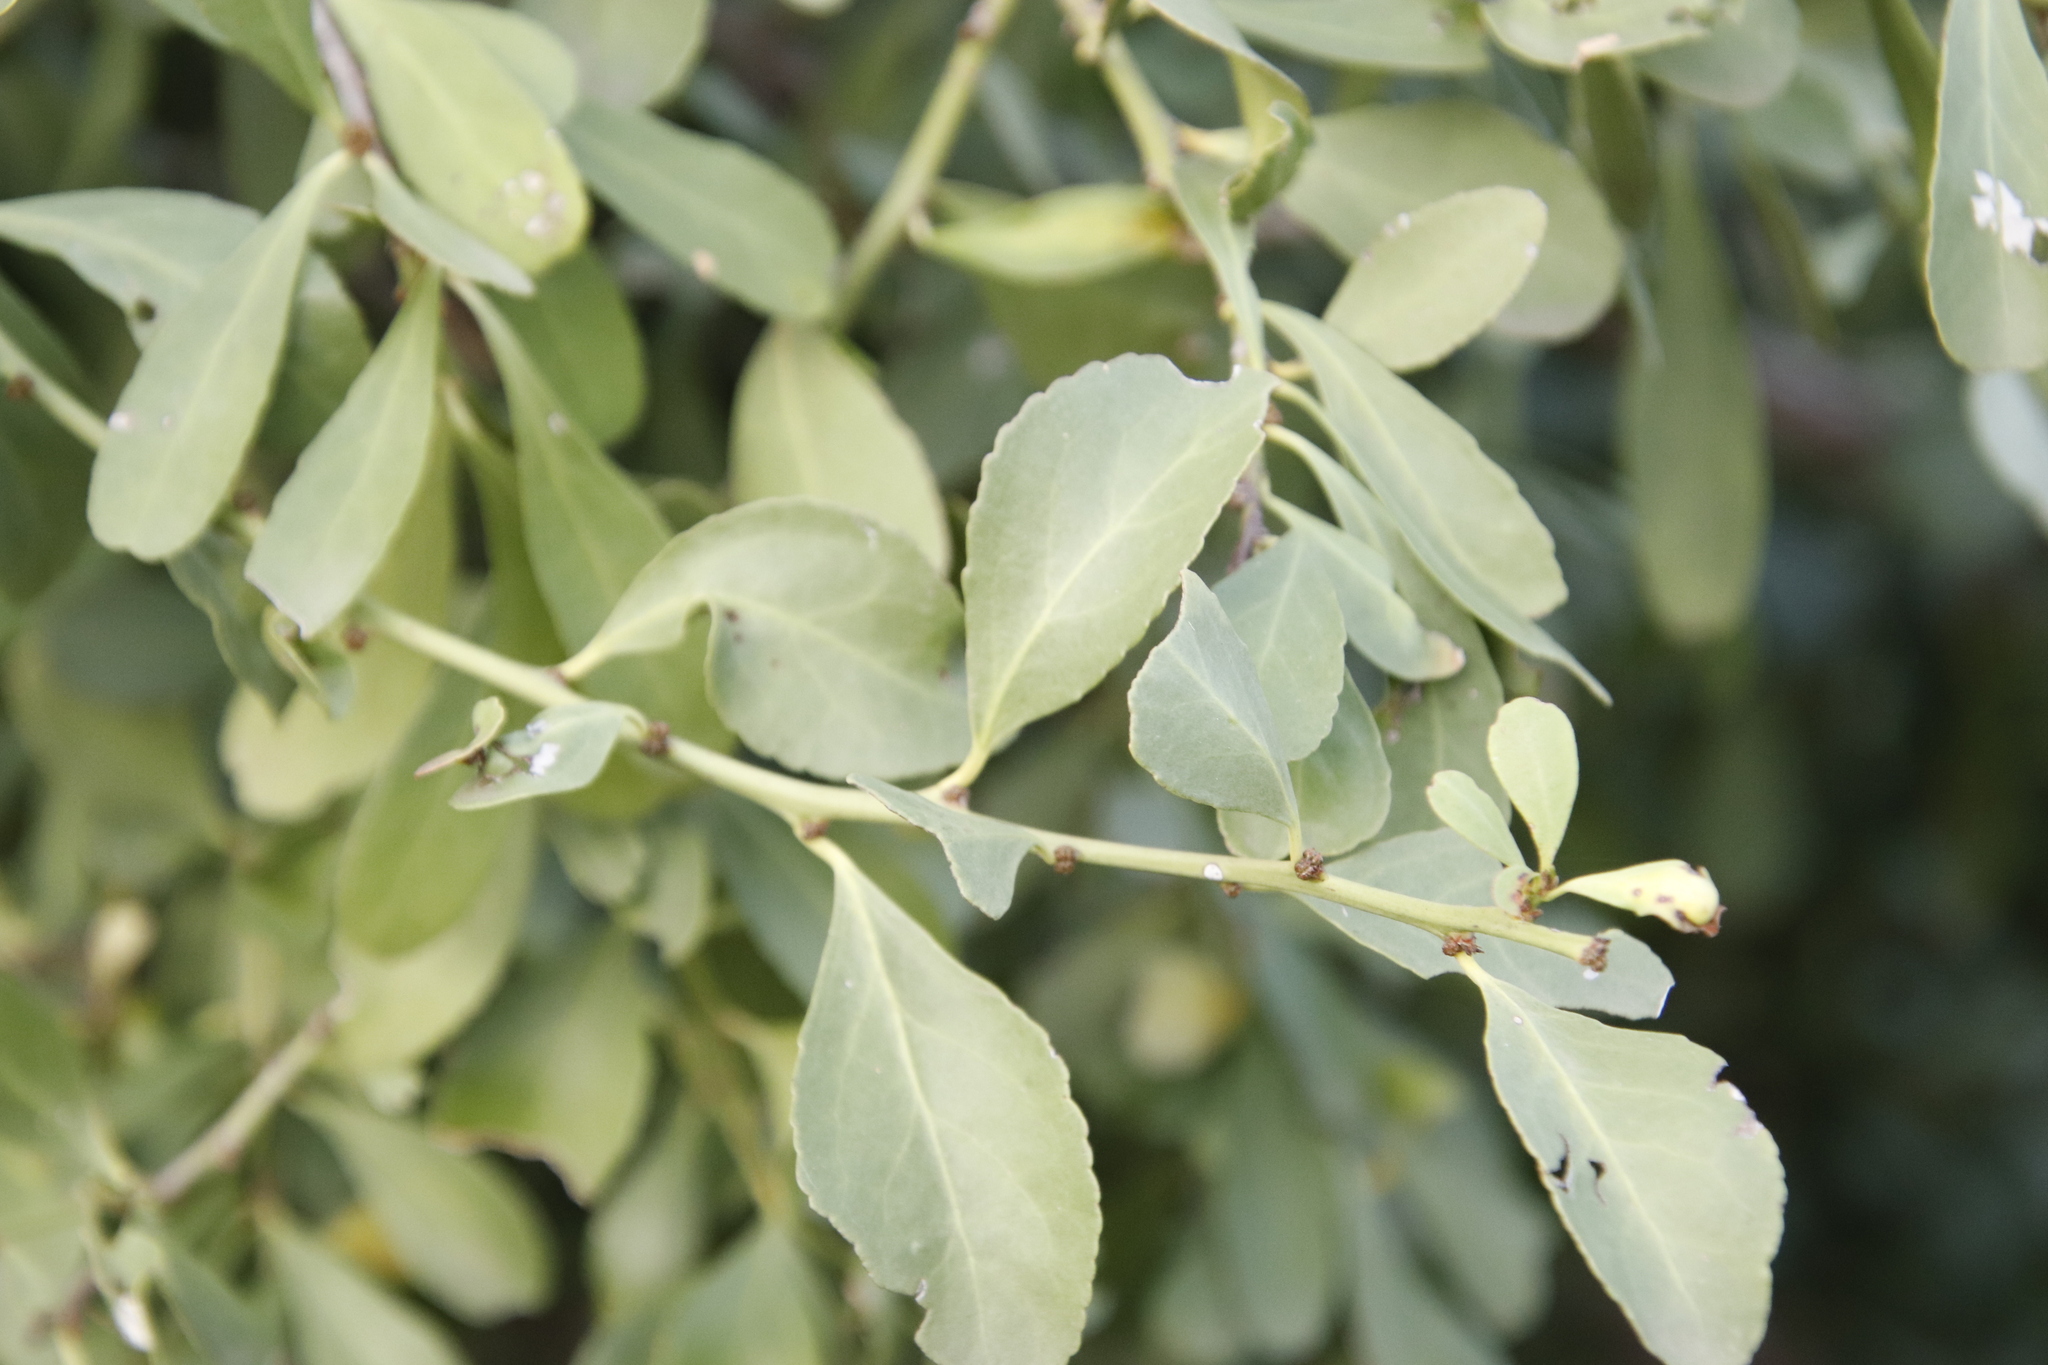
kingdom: Plantae
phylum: Tracheophyta
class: Magnoliopsida
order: Celastrales
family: Celastraceae
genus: Gymnosporia
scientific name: Gymnosporia buxifolia
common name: Common spike-thorn
